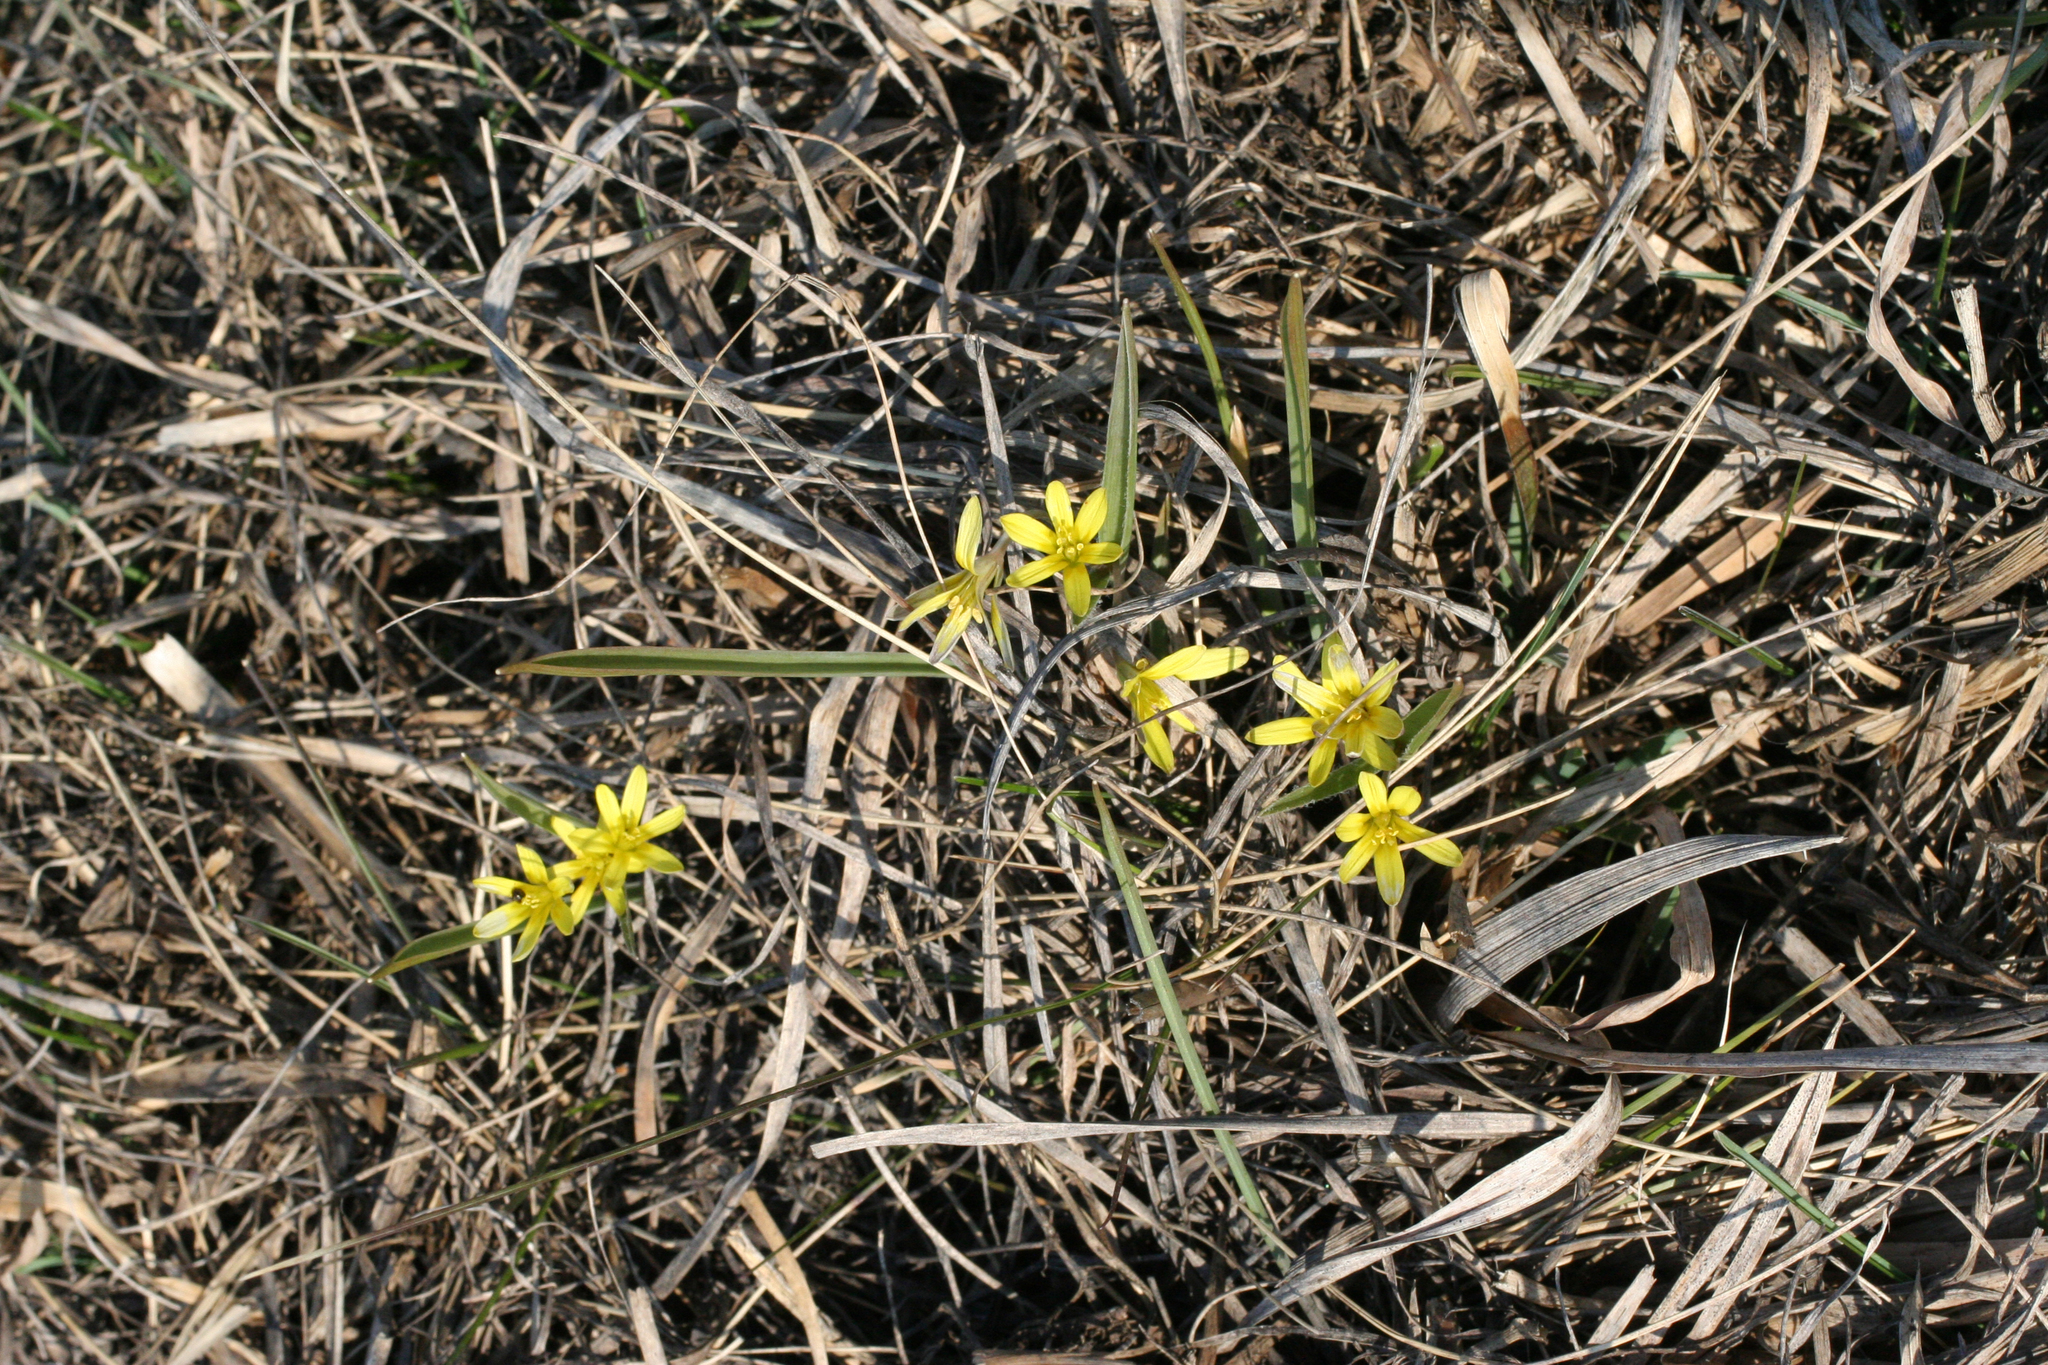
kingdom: Plantae
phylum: Tracheophyta
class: Liliopsida
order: Liliales
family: Liliaceae
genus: Gagea
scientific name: Gagea fedtschenkoana
